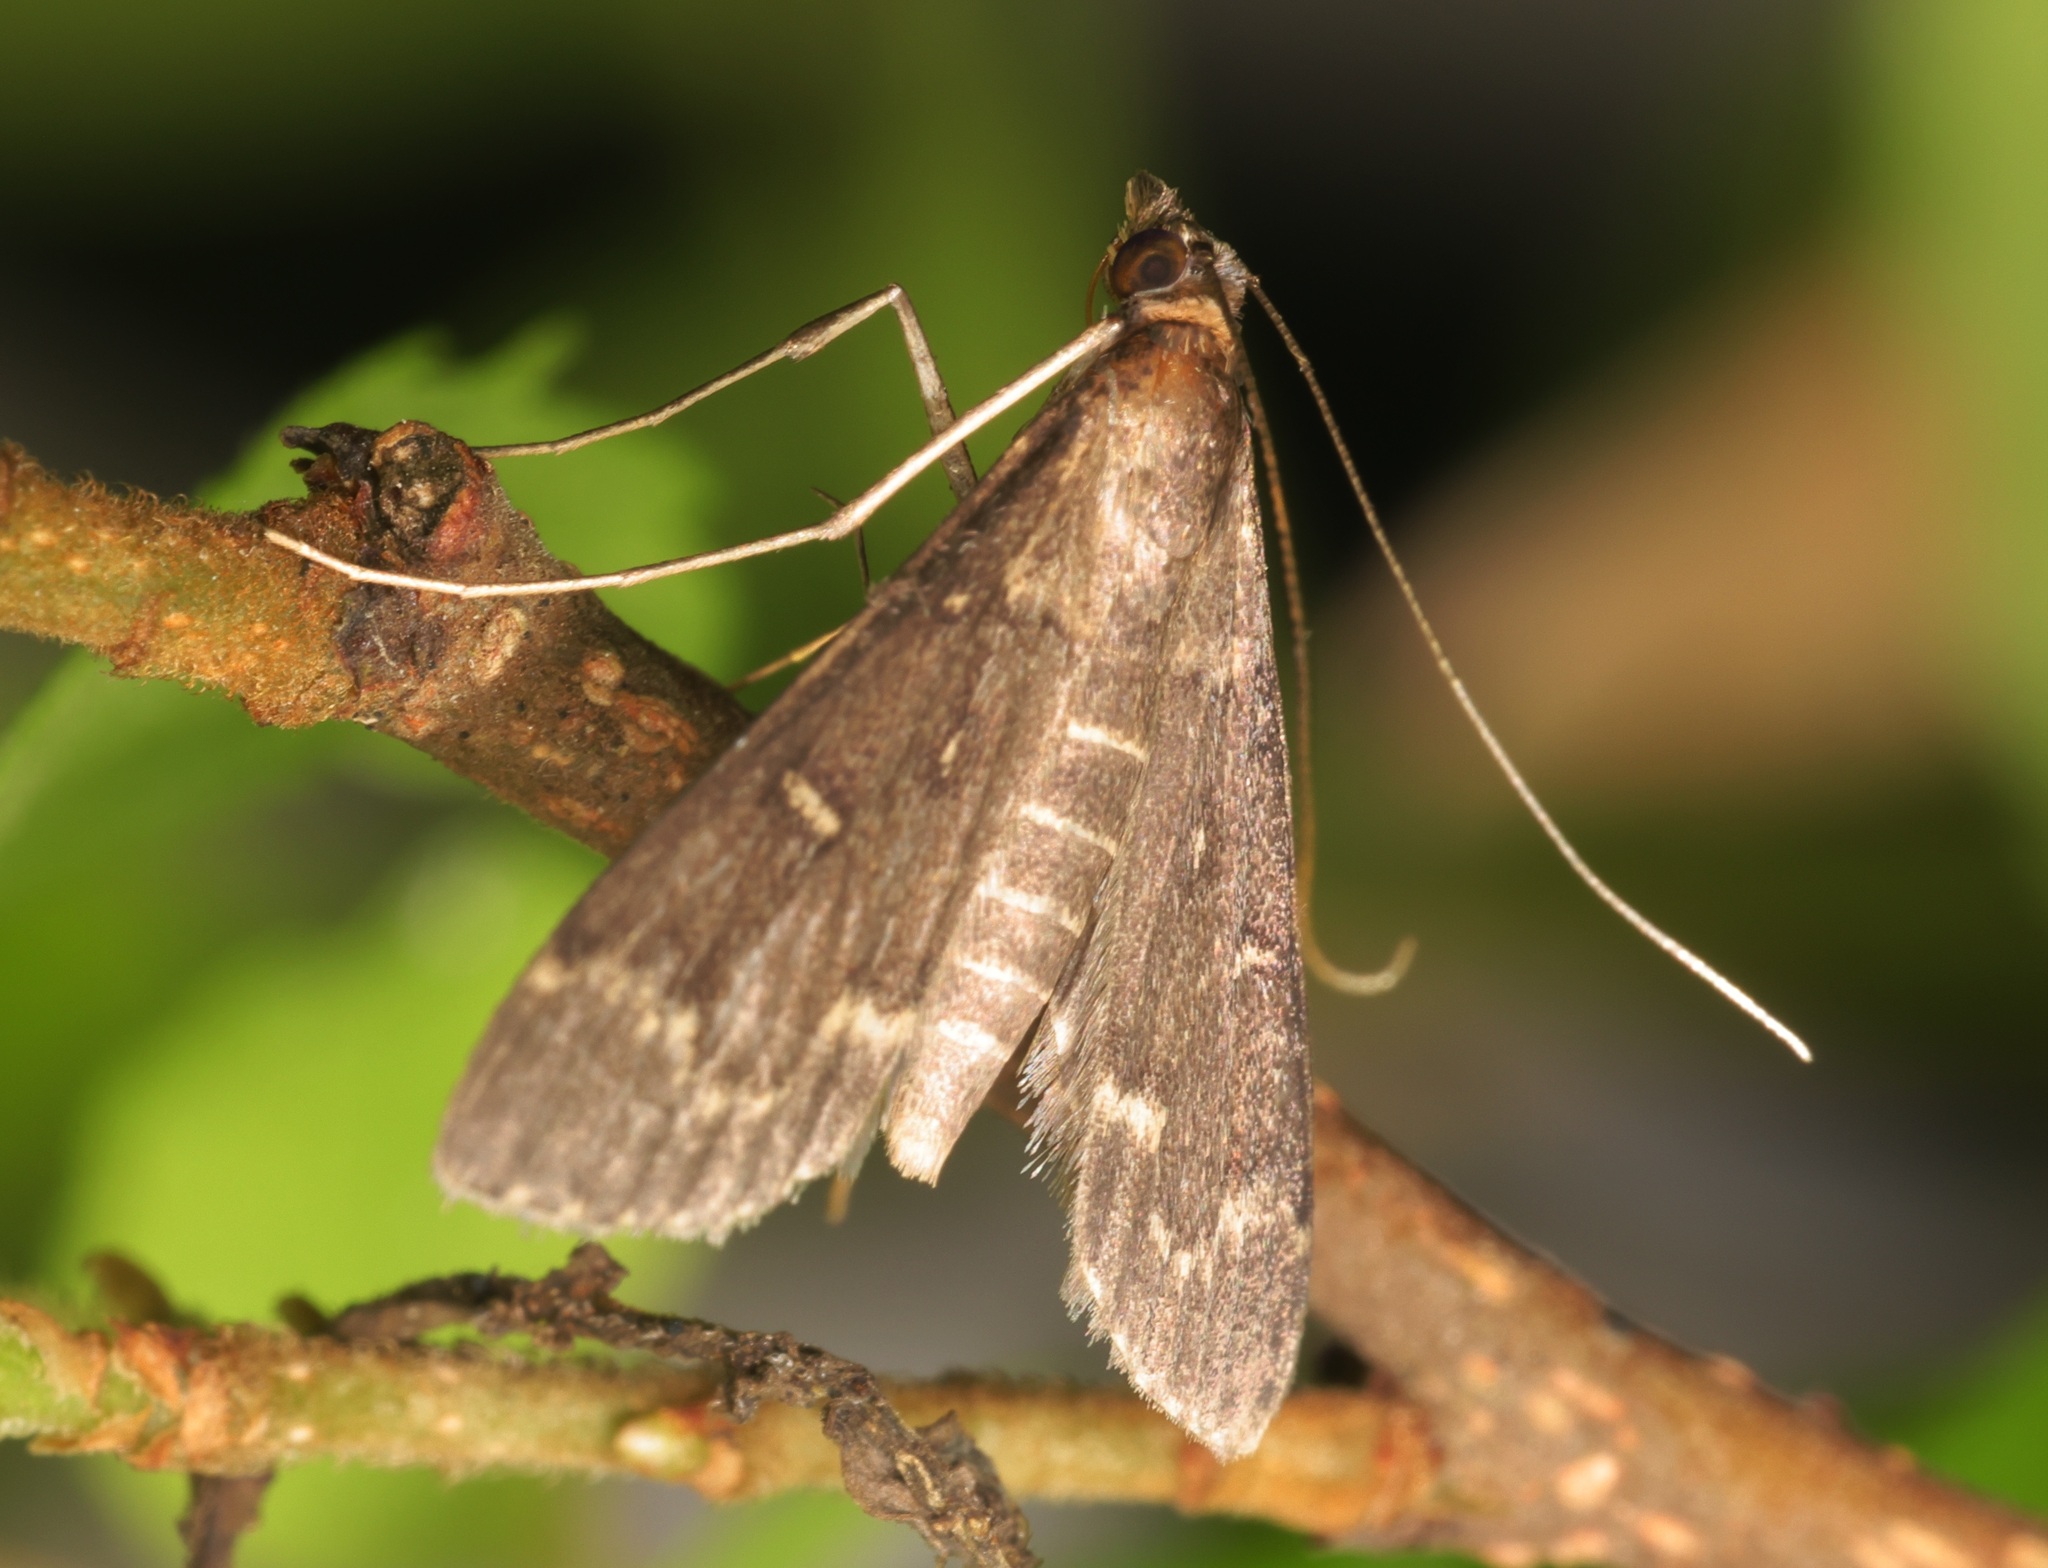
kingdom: Animalia
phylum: Arthropoda
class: Insecta
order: Lepidoptera
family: Crambidae
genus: Symmoracma
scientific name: Symmoracma minoralis
